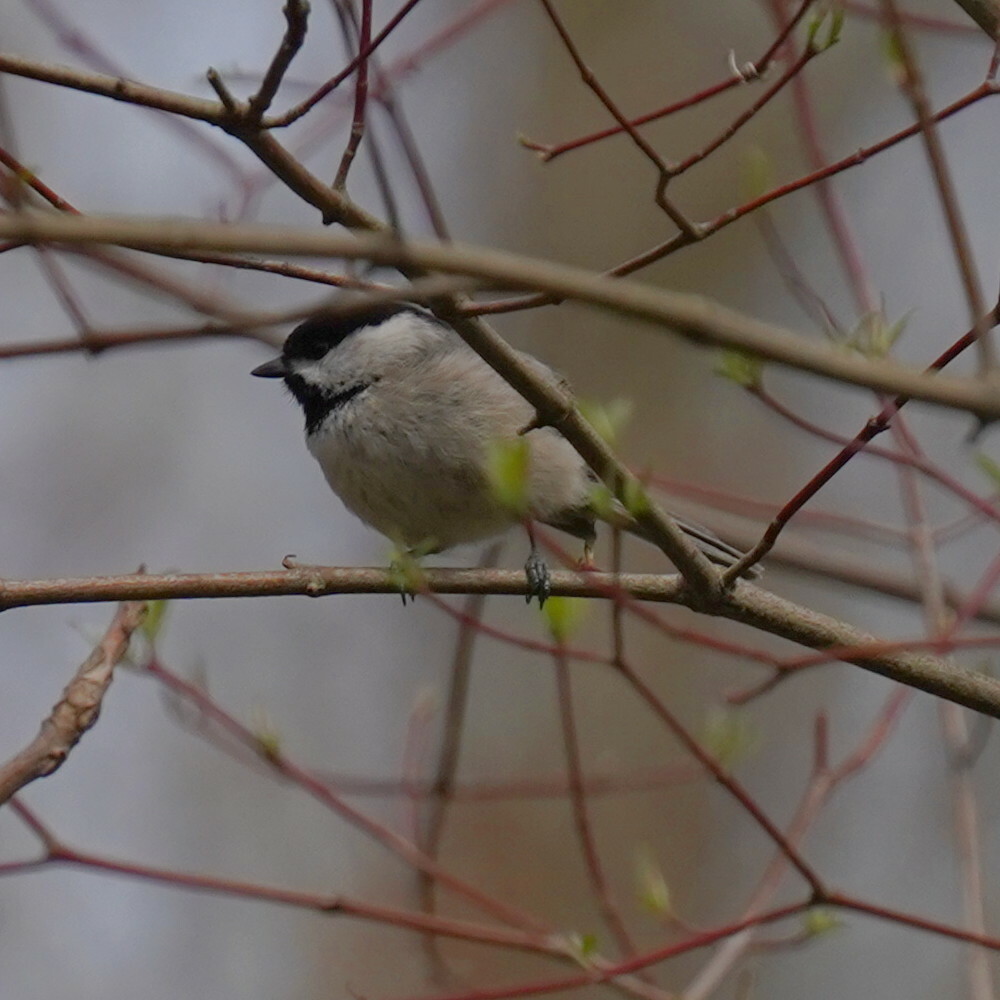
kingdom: Animalia
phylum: Chordata
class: Aves
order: Passeriformes
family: Paridae
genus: Poecile
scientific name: Poecile carolinensis
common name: Carolina chickadee
